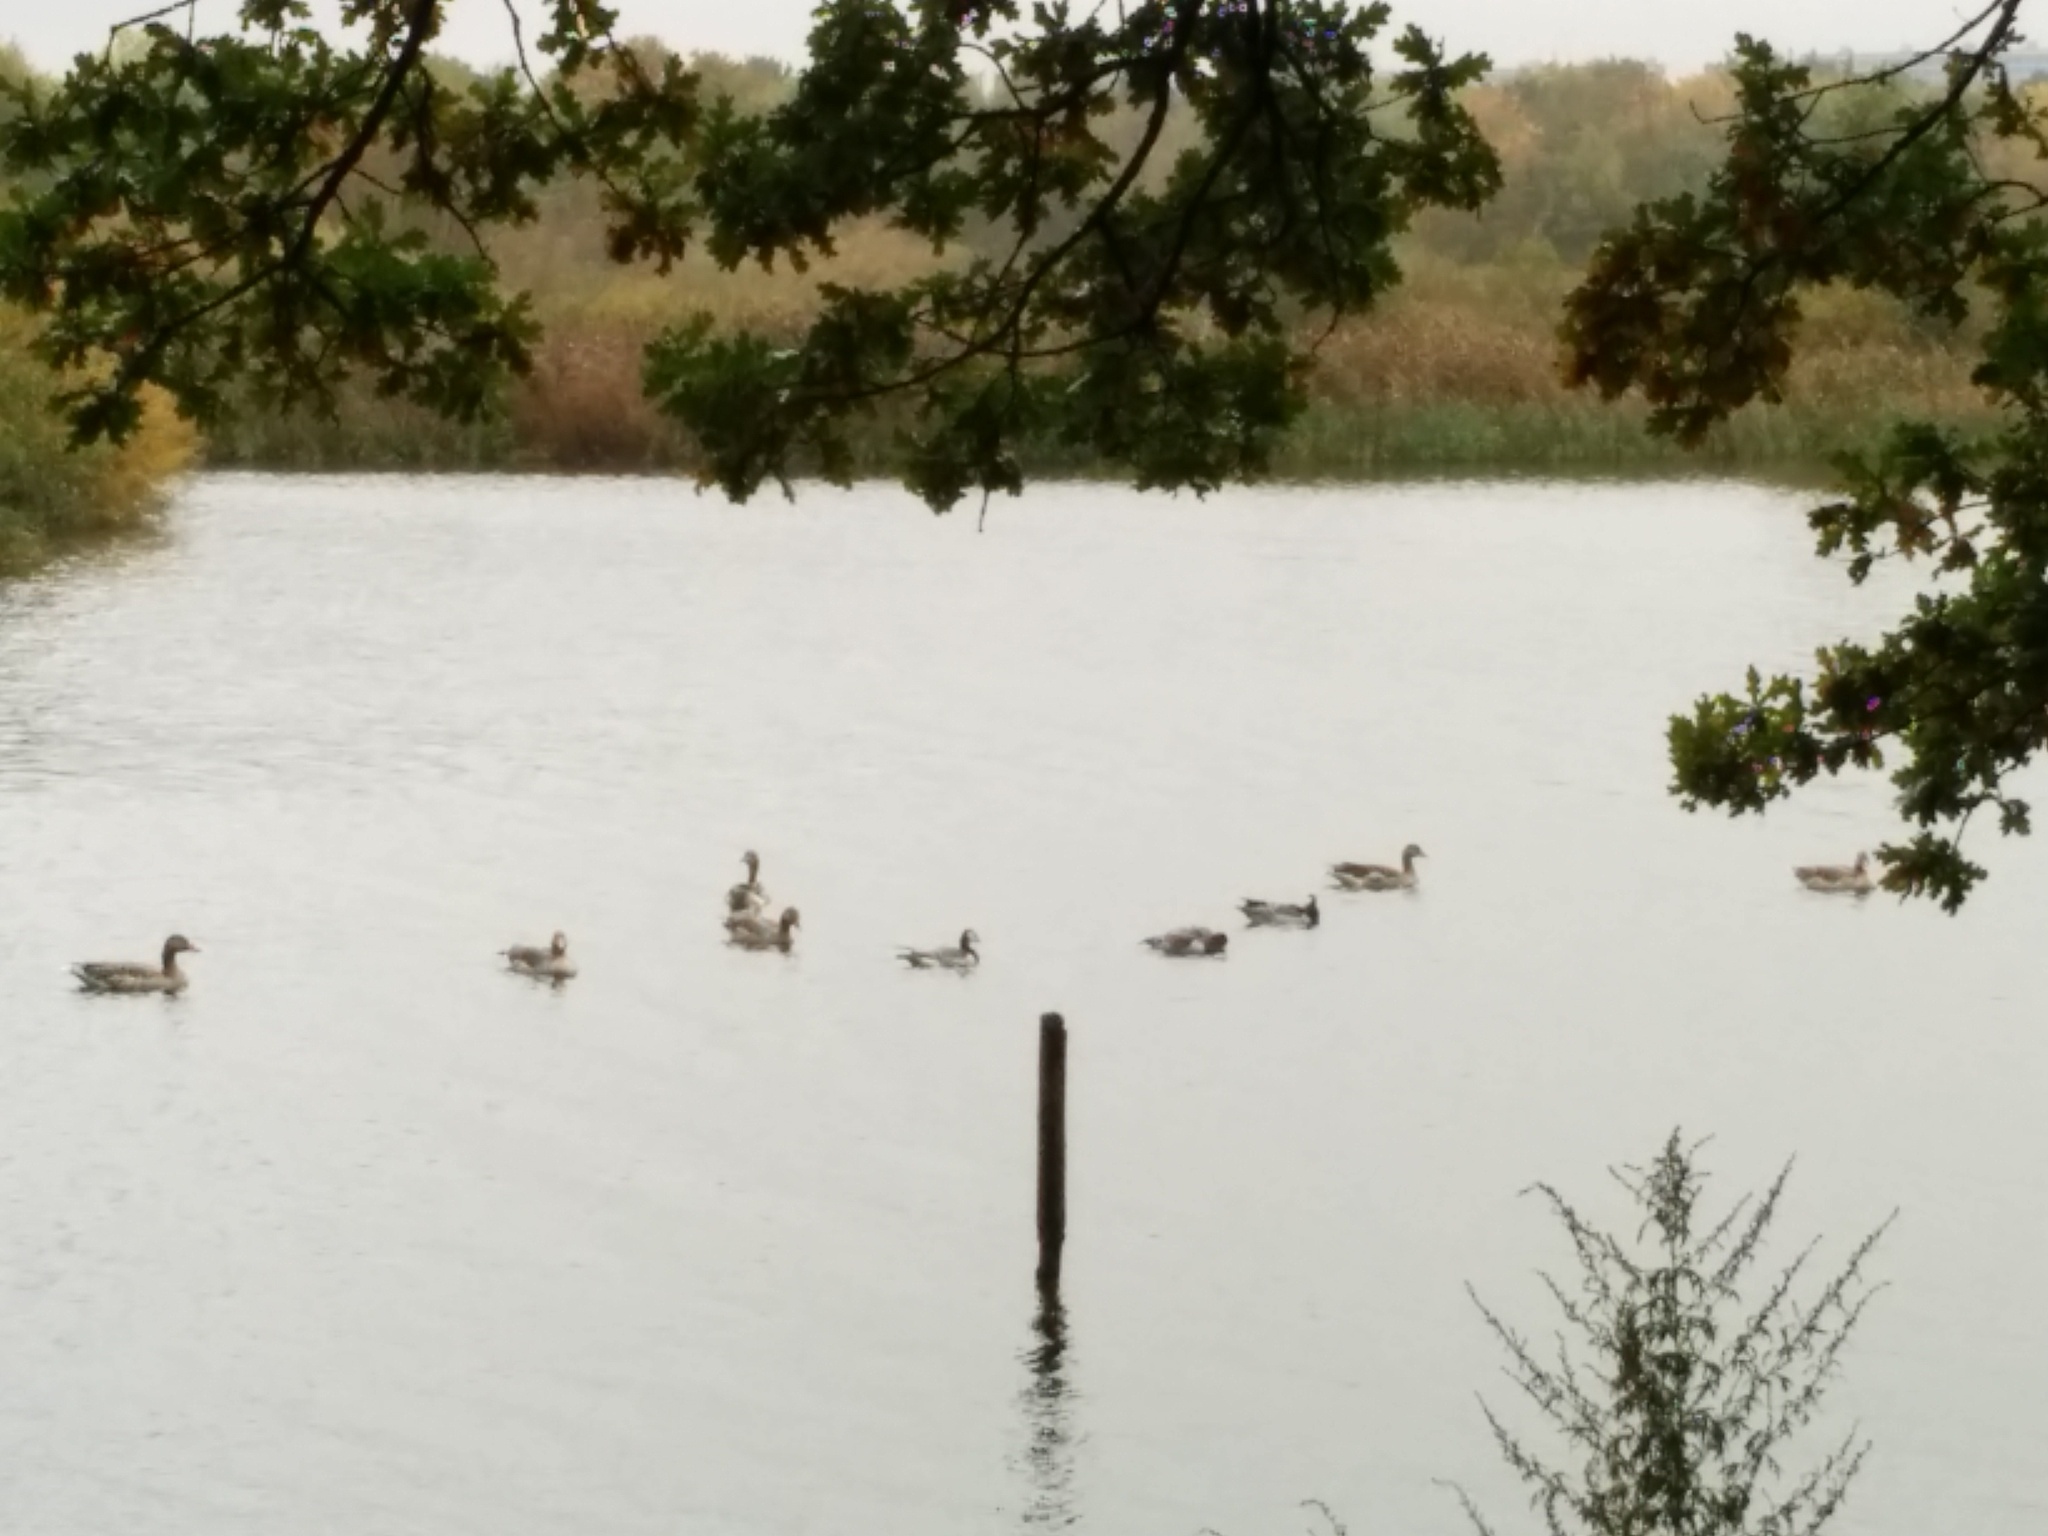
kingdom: Animalia
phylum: Chordata
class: Aves
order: Anseriformes
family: Anatidae
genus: Anser
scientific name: Anser anser
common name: Greylag goose
